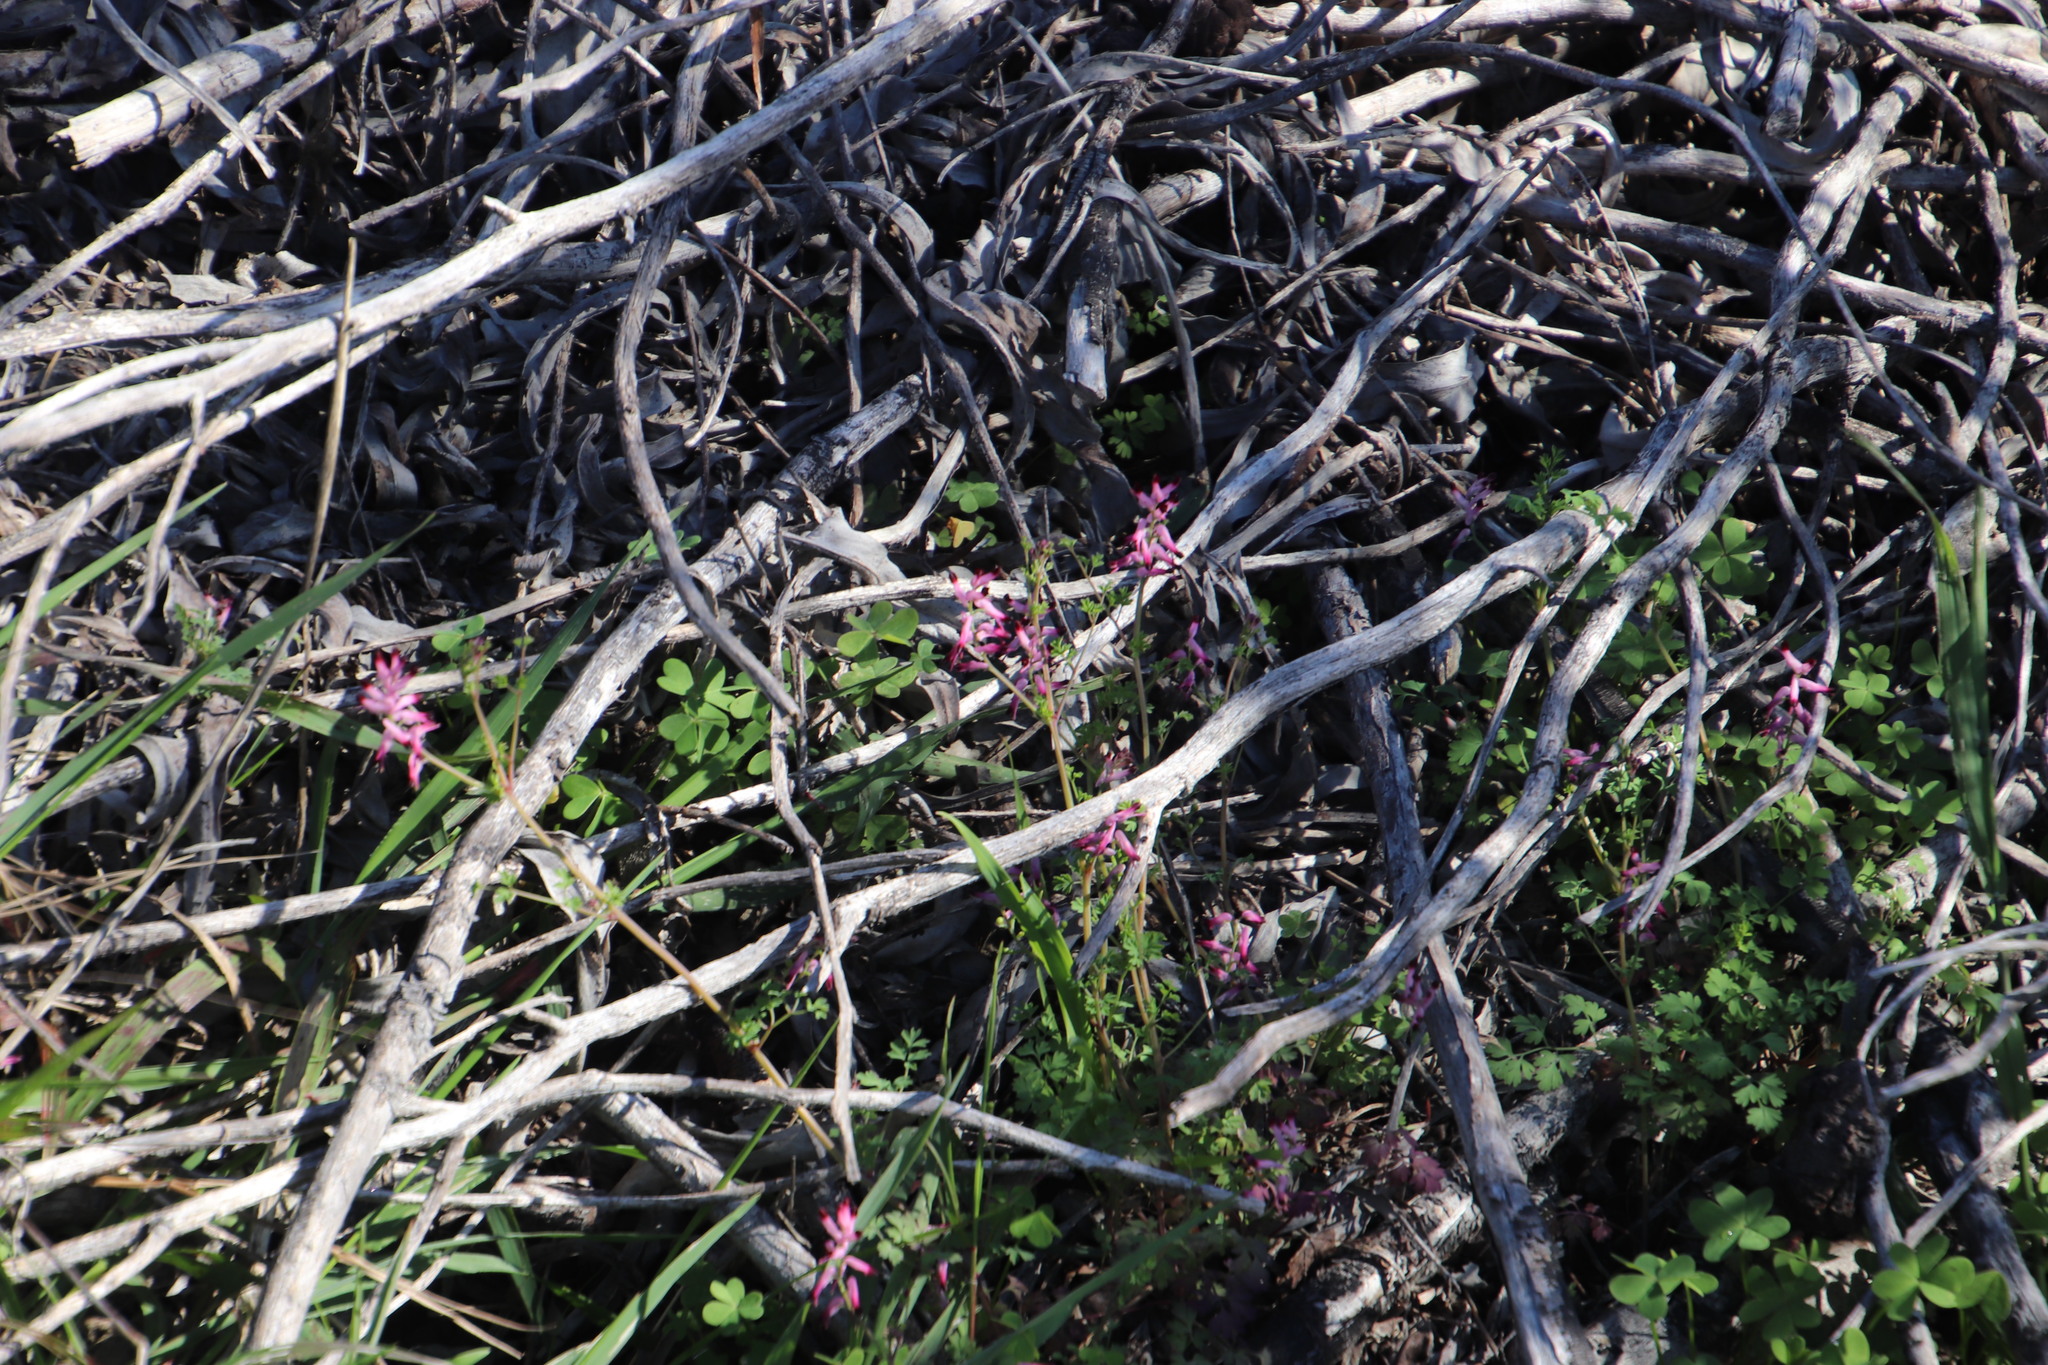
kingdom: Plantae
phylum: Tracheophyta
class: Magnoliopsida
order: Ranunculales
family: Papaveraceae
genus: Fumaria
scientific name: Fumaria muralis
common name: Common ramping-fumitory
